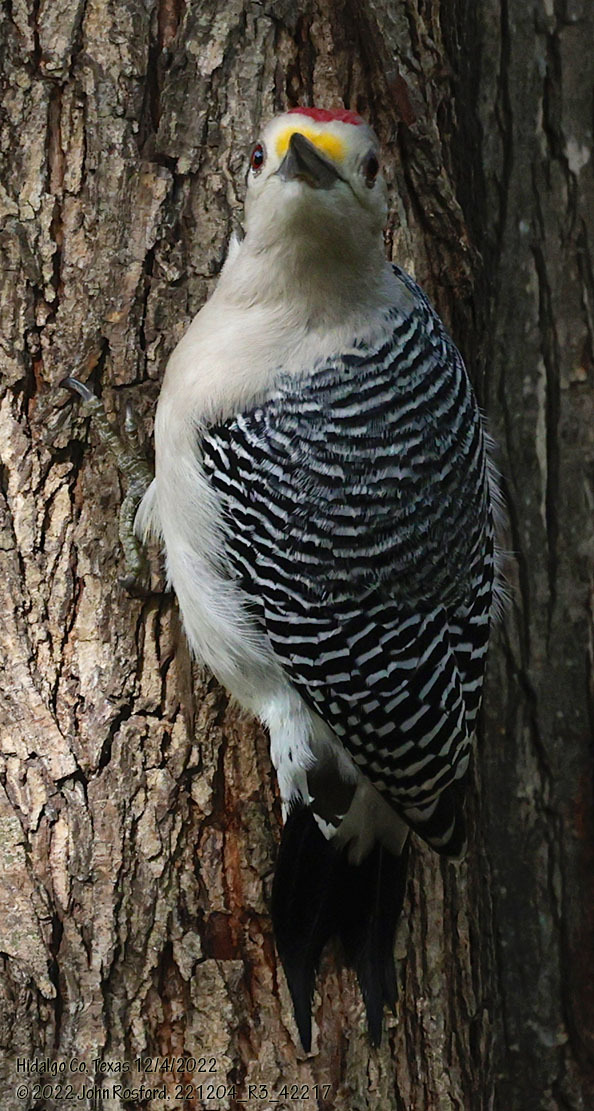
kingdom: Animalia
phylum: Chordata
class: Aves
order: Piciformes
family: Picidae
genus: Melanerpes
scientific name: Melanerpes aurifrons
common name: Golden-fronted woodpecker
